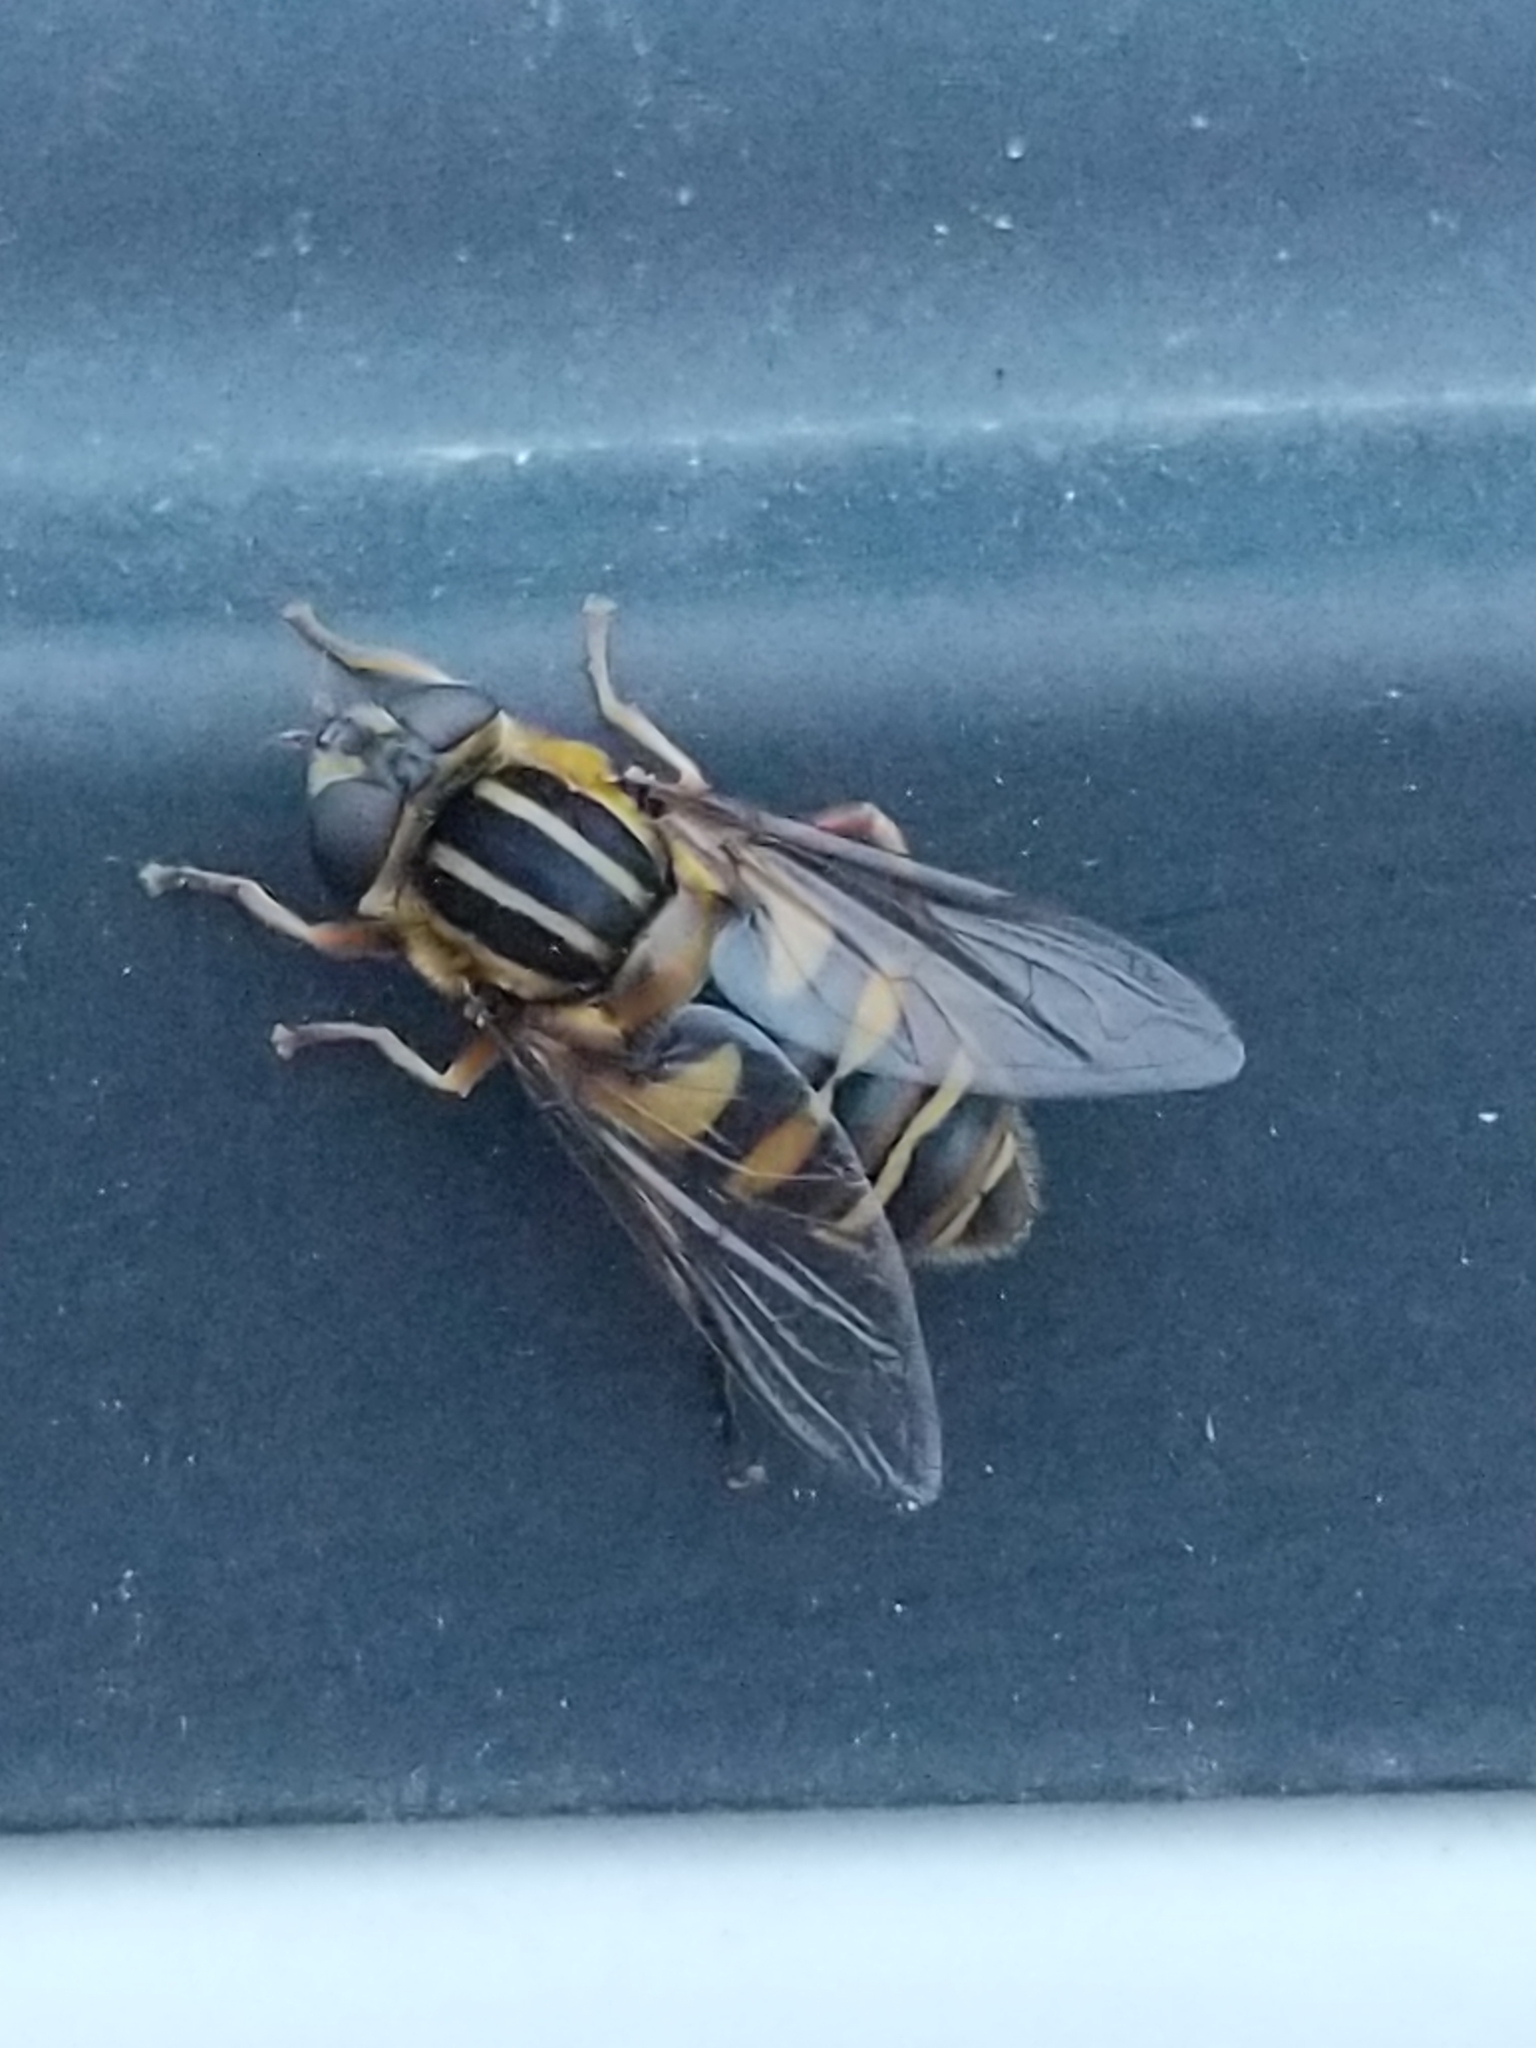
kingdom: Animalia
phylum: Arthropoda
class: Insecta
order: Diptera
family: Syrphidae
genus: Helophilus
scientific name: Helophilus fasciatus
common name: Narrow-headed marsh fly
